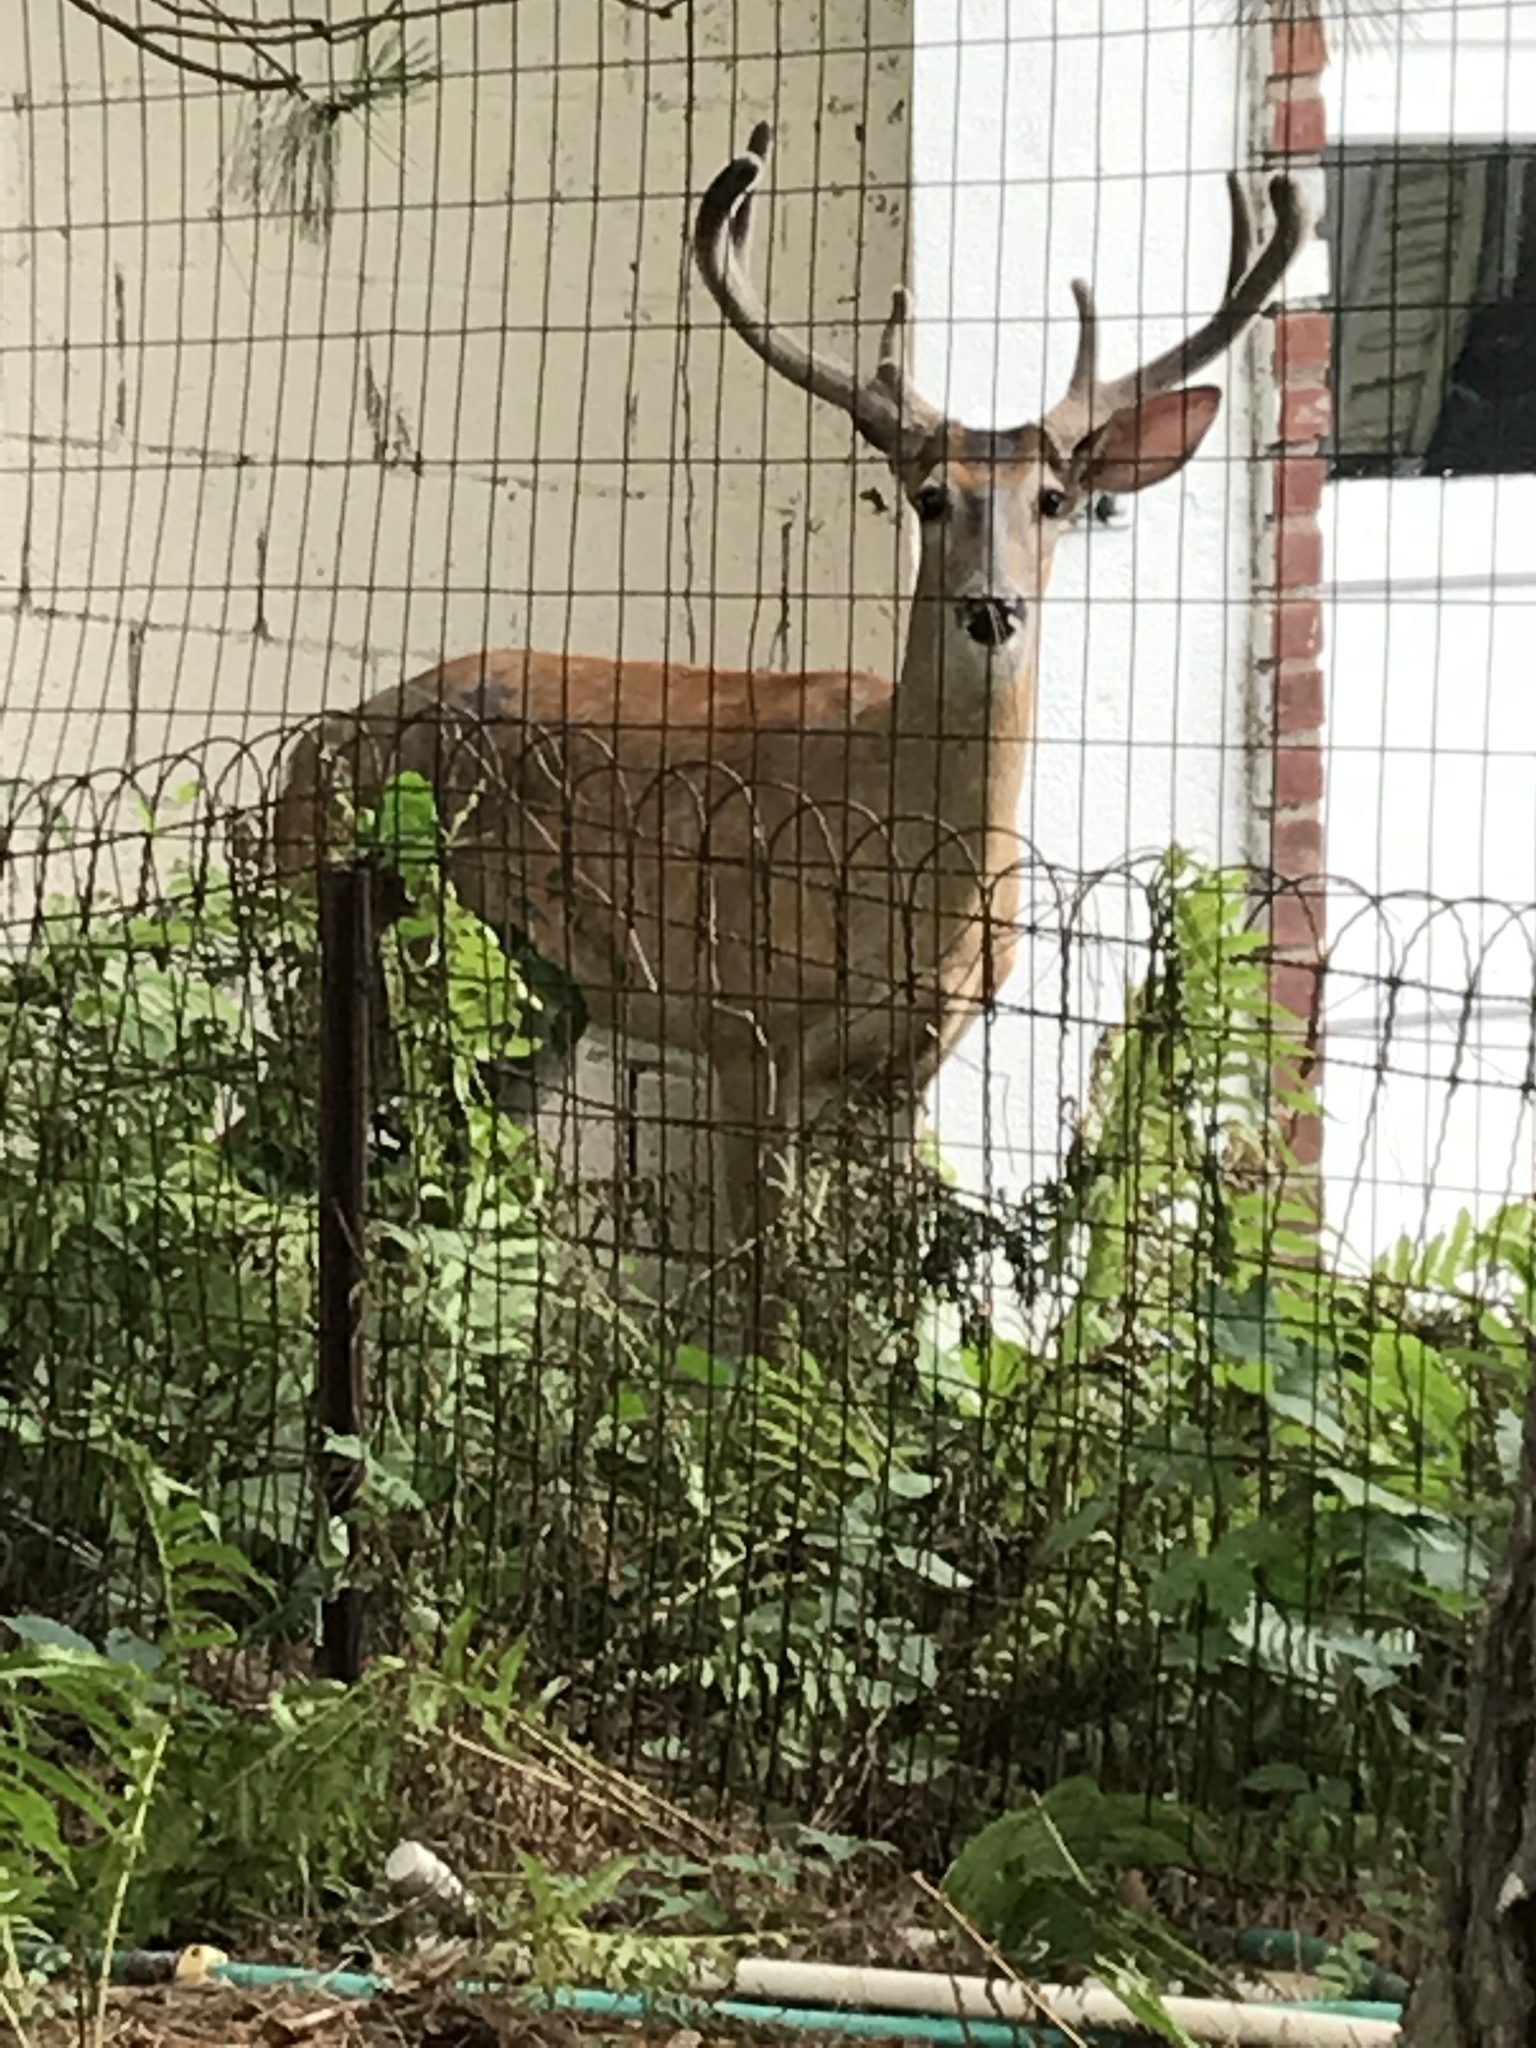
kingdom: Animalia
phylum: Chordata
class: Mammalia
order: Artiodactyla
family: Cervidae
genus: Odocoileus
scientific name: Odocoileus virginianus
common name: White-tailed deer
